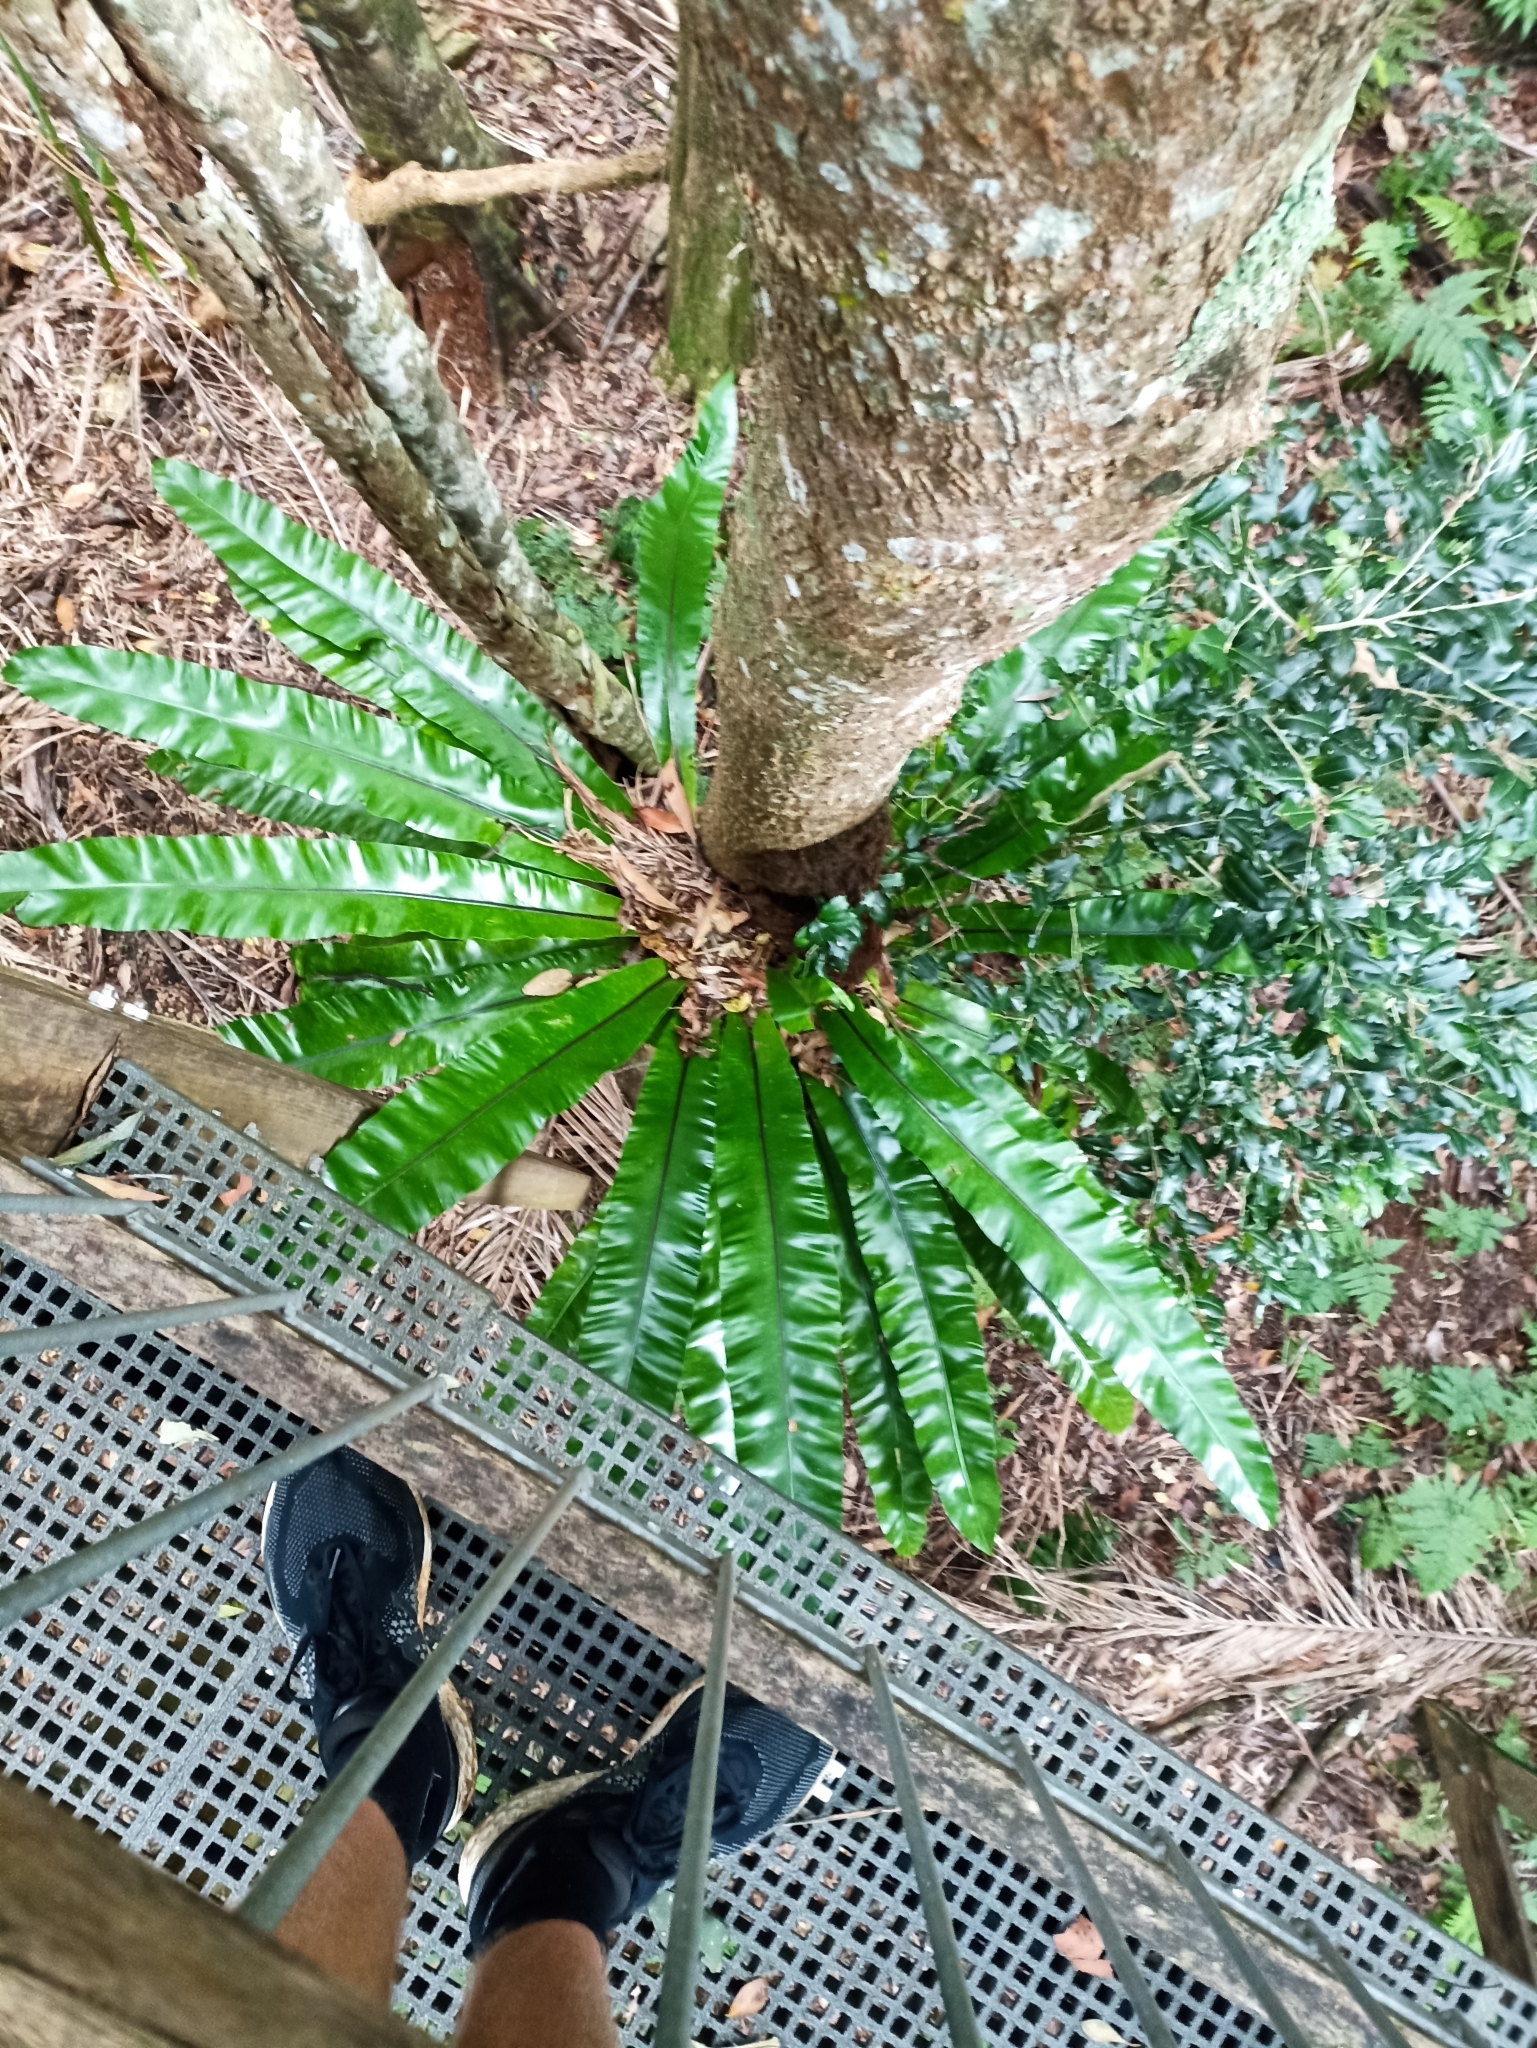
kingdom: Plantae
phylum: Tracheophyta
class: Polypodiopsida
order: Polypodiales
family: Aspleniaceae
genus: Asplenium
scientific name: Asplenium australasicum
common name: Bird's-nest fern
